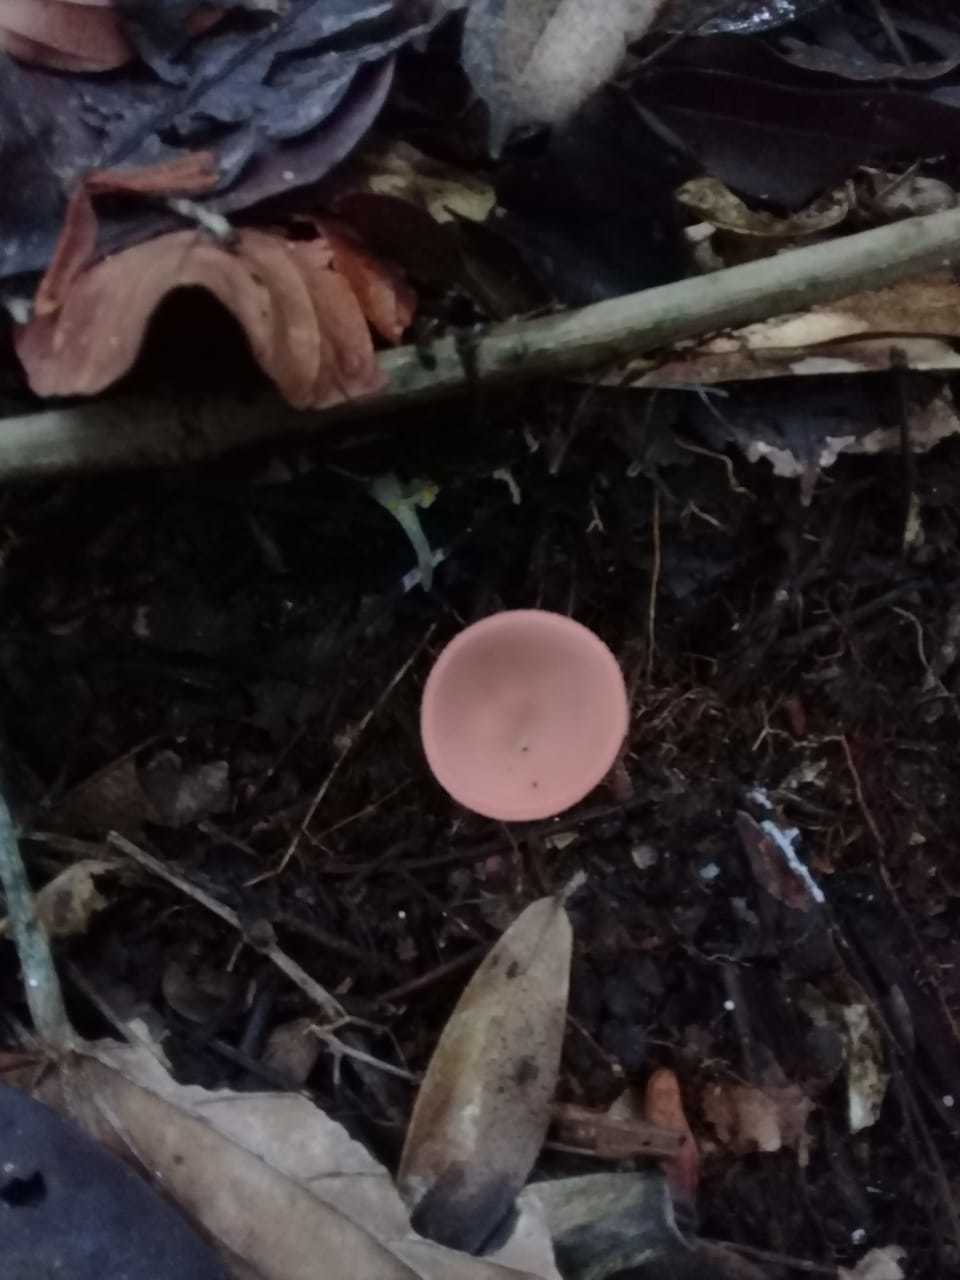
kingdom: Fungi
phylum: Ascomycota
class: Pezizomycetes
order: Pezizales
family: Sarcoscyphaceae
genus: Cookeina
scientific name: Cookeina speciosa
